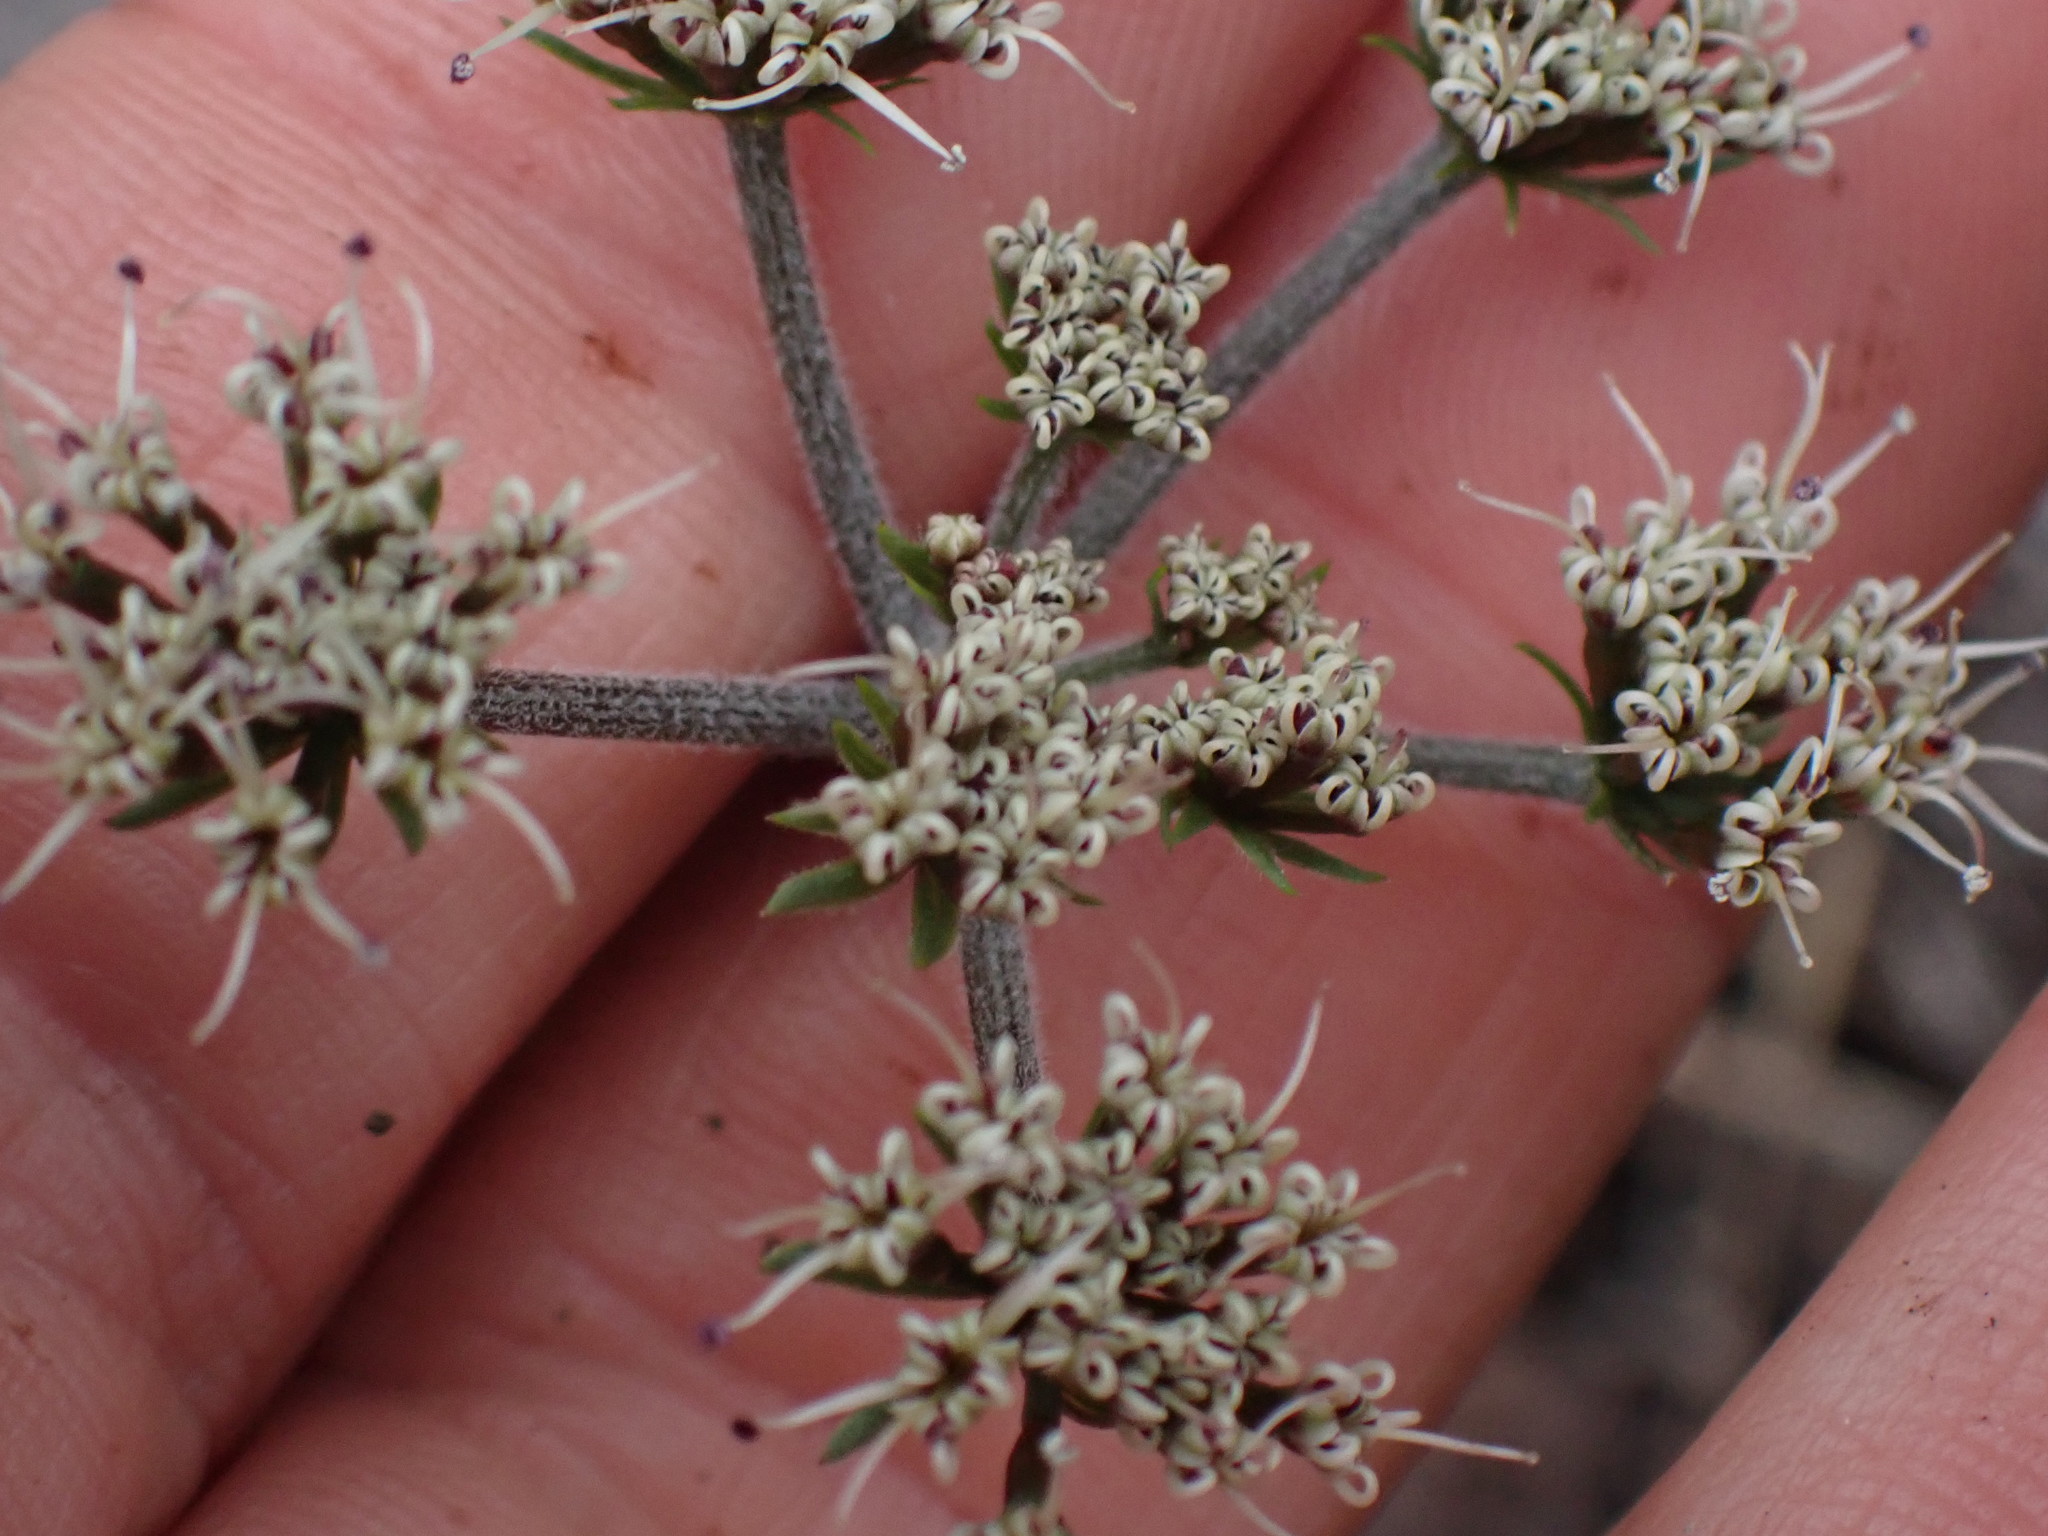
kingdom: Plantae
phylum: Tracheophyta
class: Magnoliopsida
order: Apiales
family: Apiaceae
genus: Lomatium
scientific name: Lomatium macrocarpum
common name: Big-seed biscuitroot
